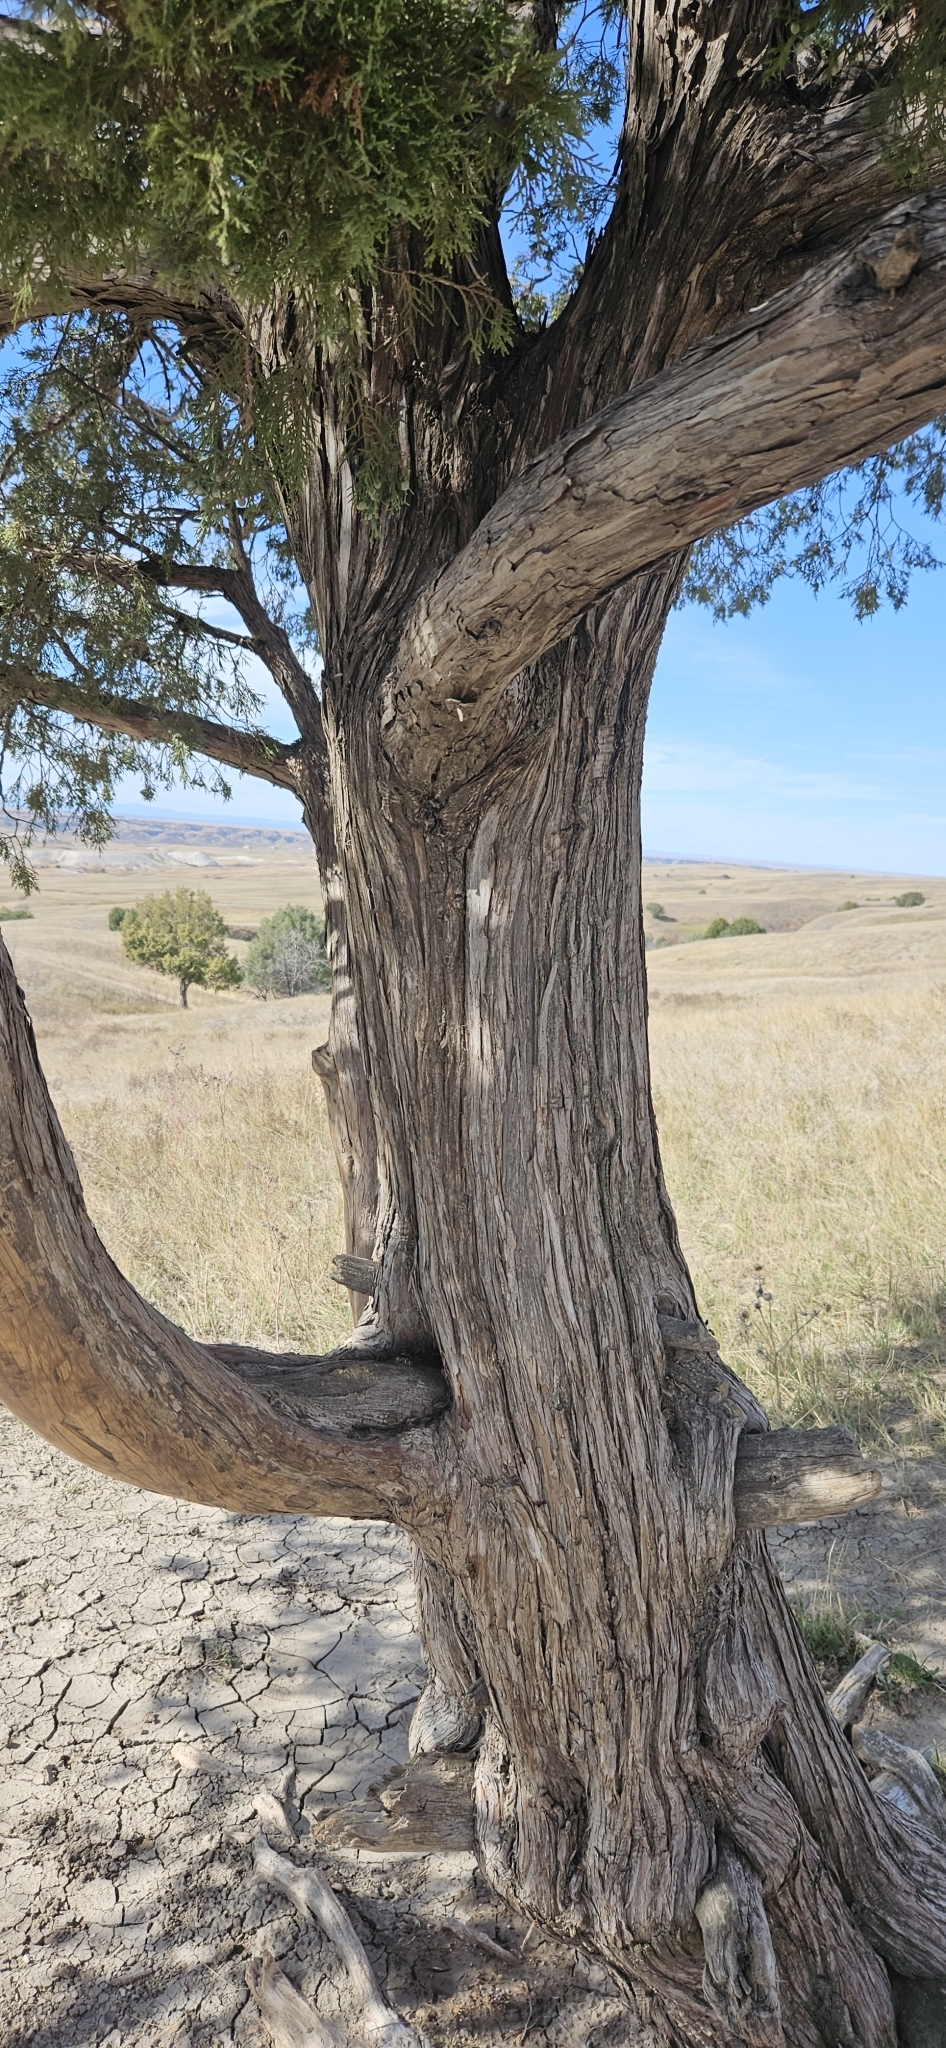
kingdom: Plantae
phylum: Tracheophyta
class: Pinopsida
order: Pinales
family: Cupressaceae
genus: Juniperus
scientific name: Juniperus scopulorum
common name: Rocky mountain juniper
